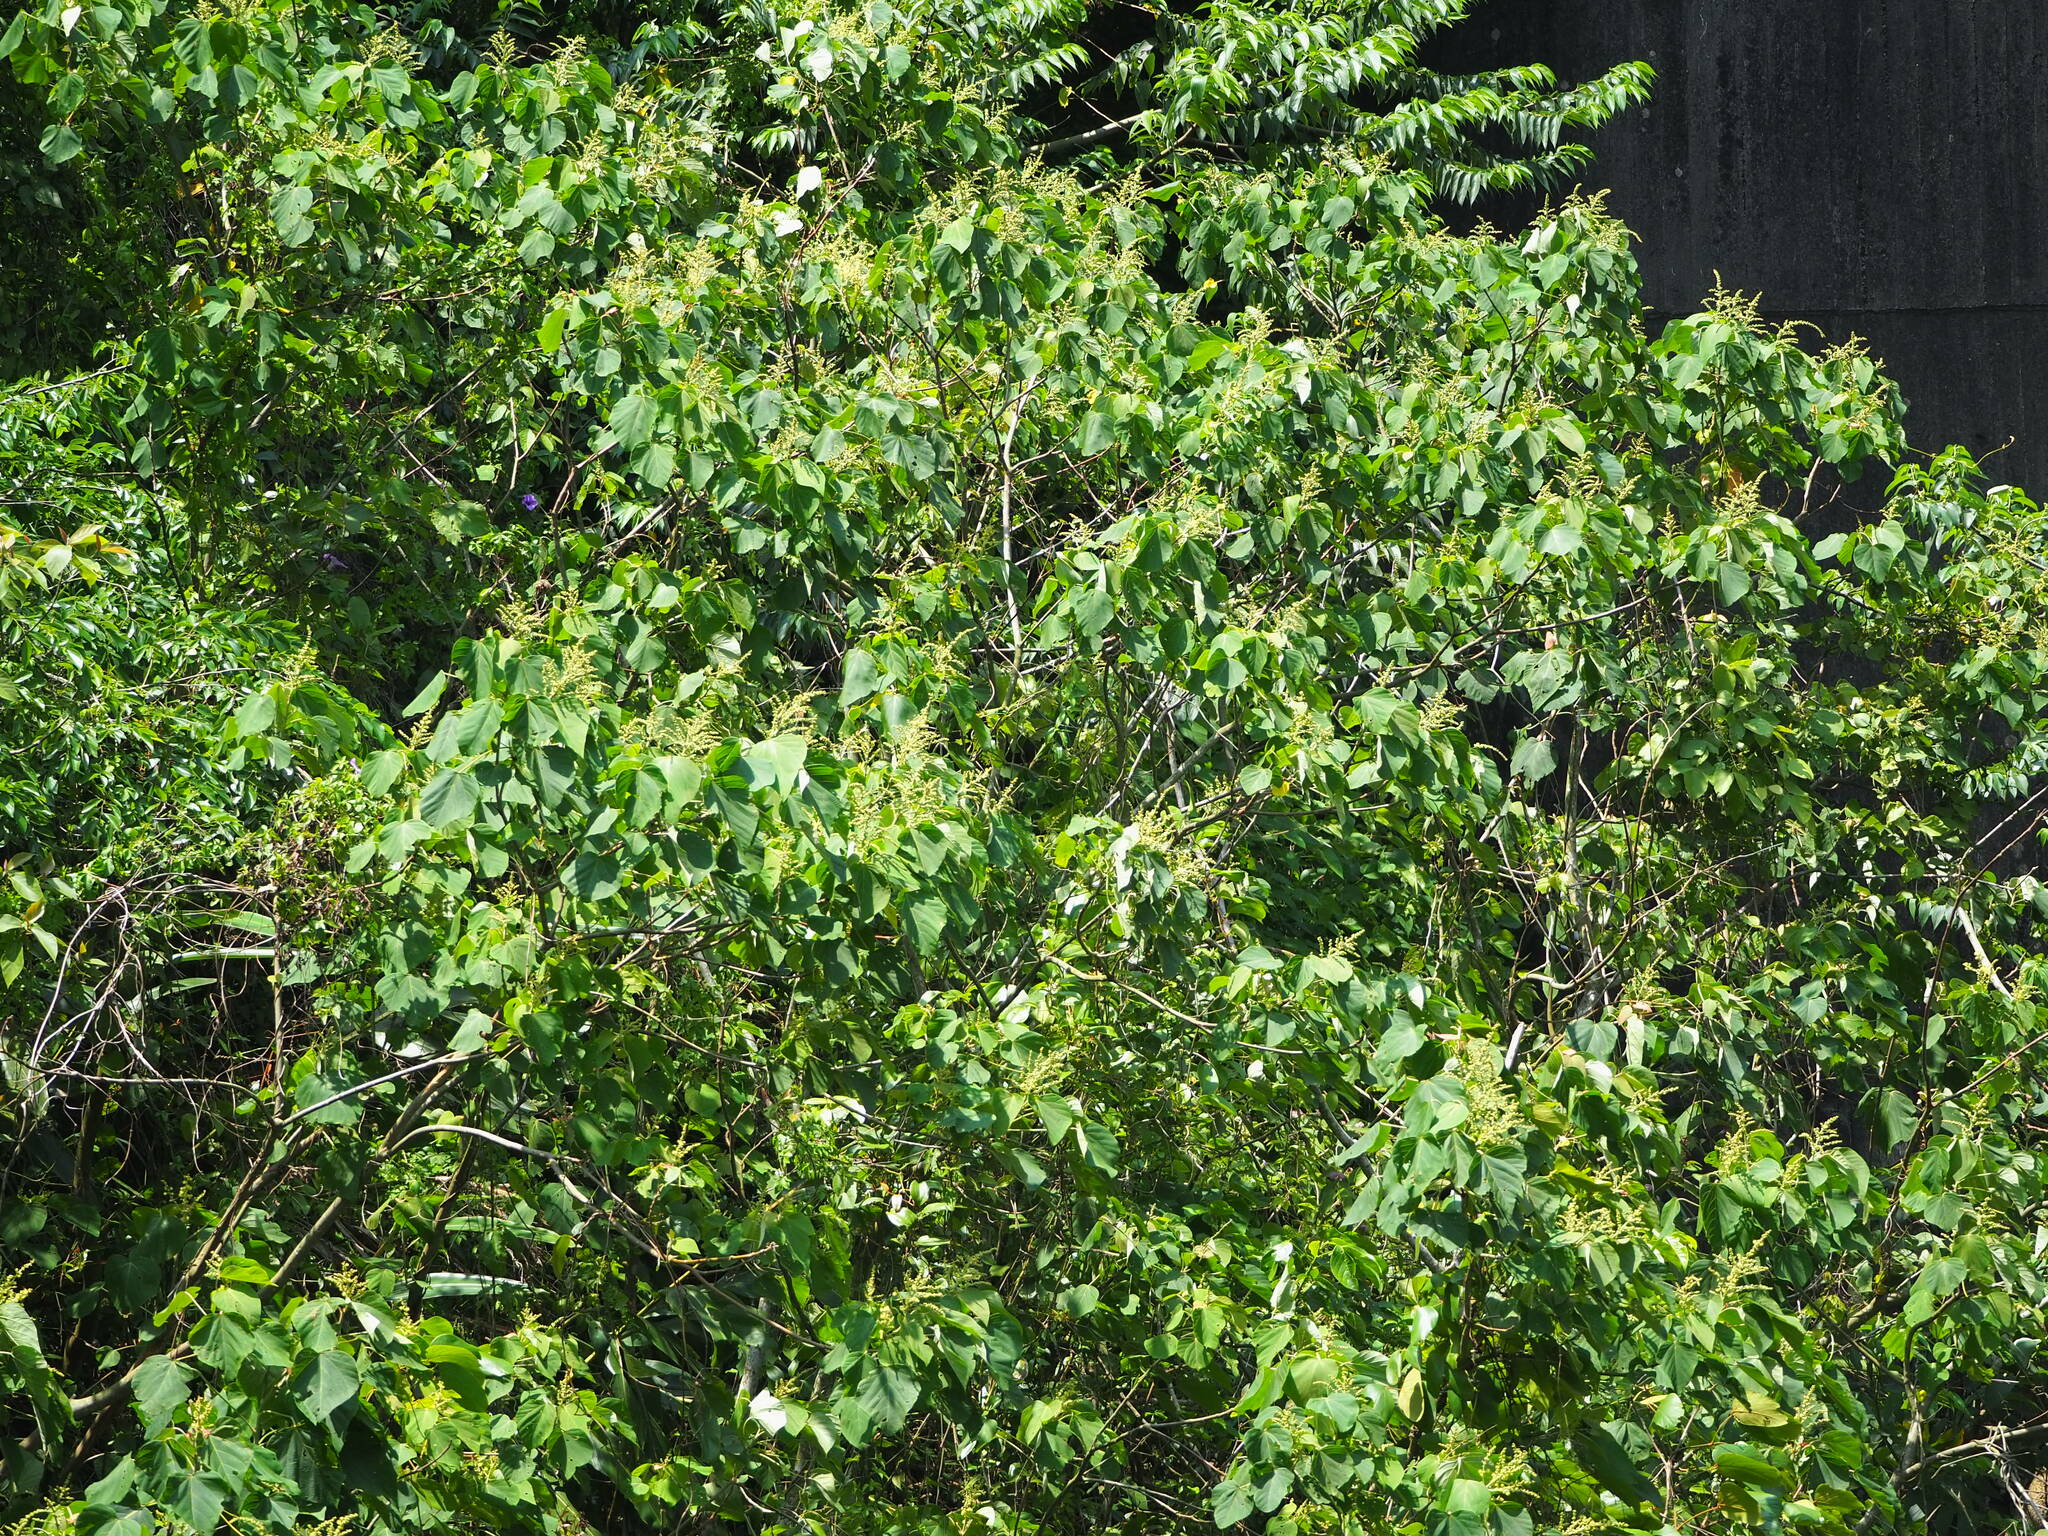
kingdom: Plantae
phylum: Tracheophyta
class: Magnoliopsida
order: Malpighiales
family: Euphorbiaceae
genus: Mallotus
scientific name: Mallotus japonicus
